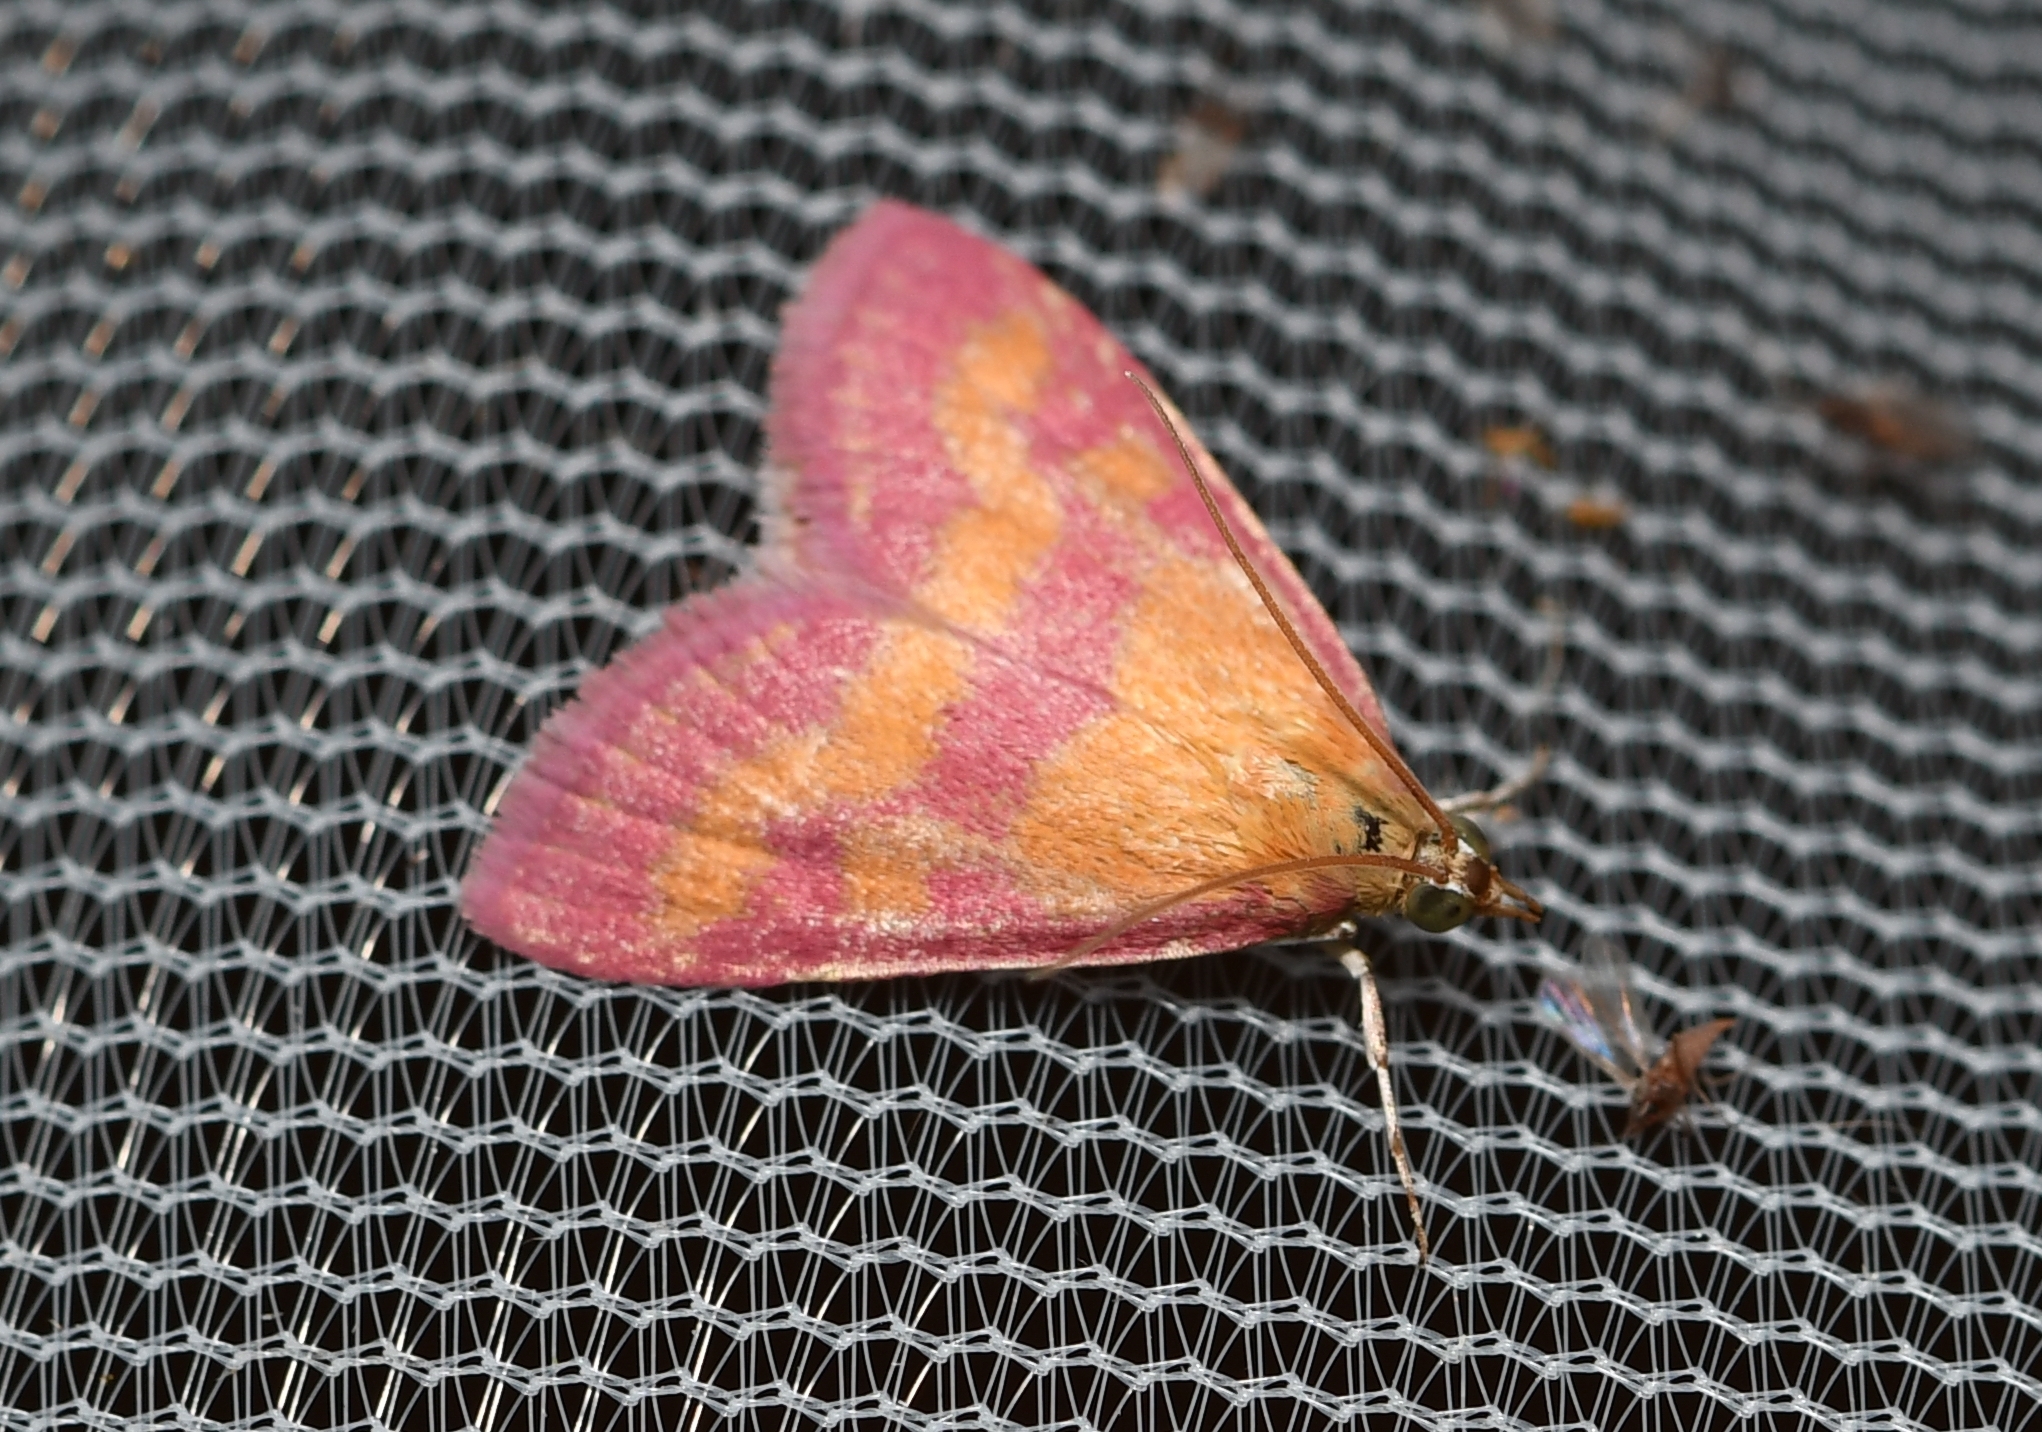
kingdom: Animalia
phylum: Arthropoda
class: Insecta
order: Lepidoptera
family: Crambidae
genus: Pyrausta
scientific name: Pyrausta laticlavia
